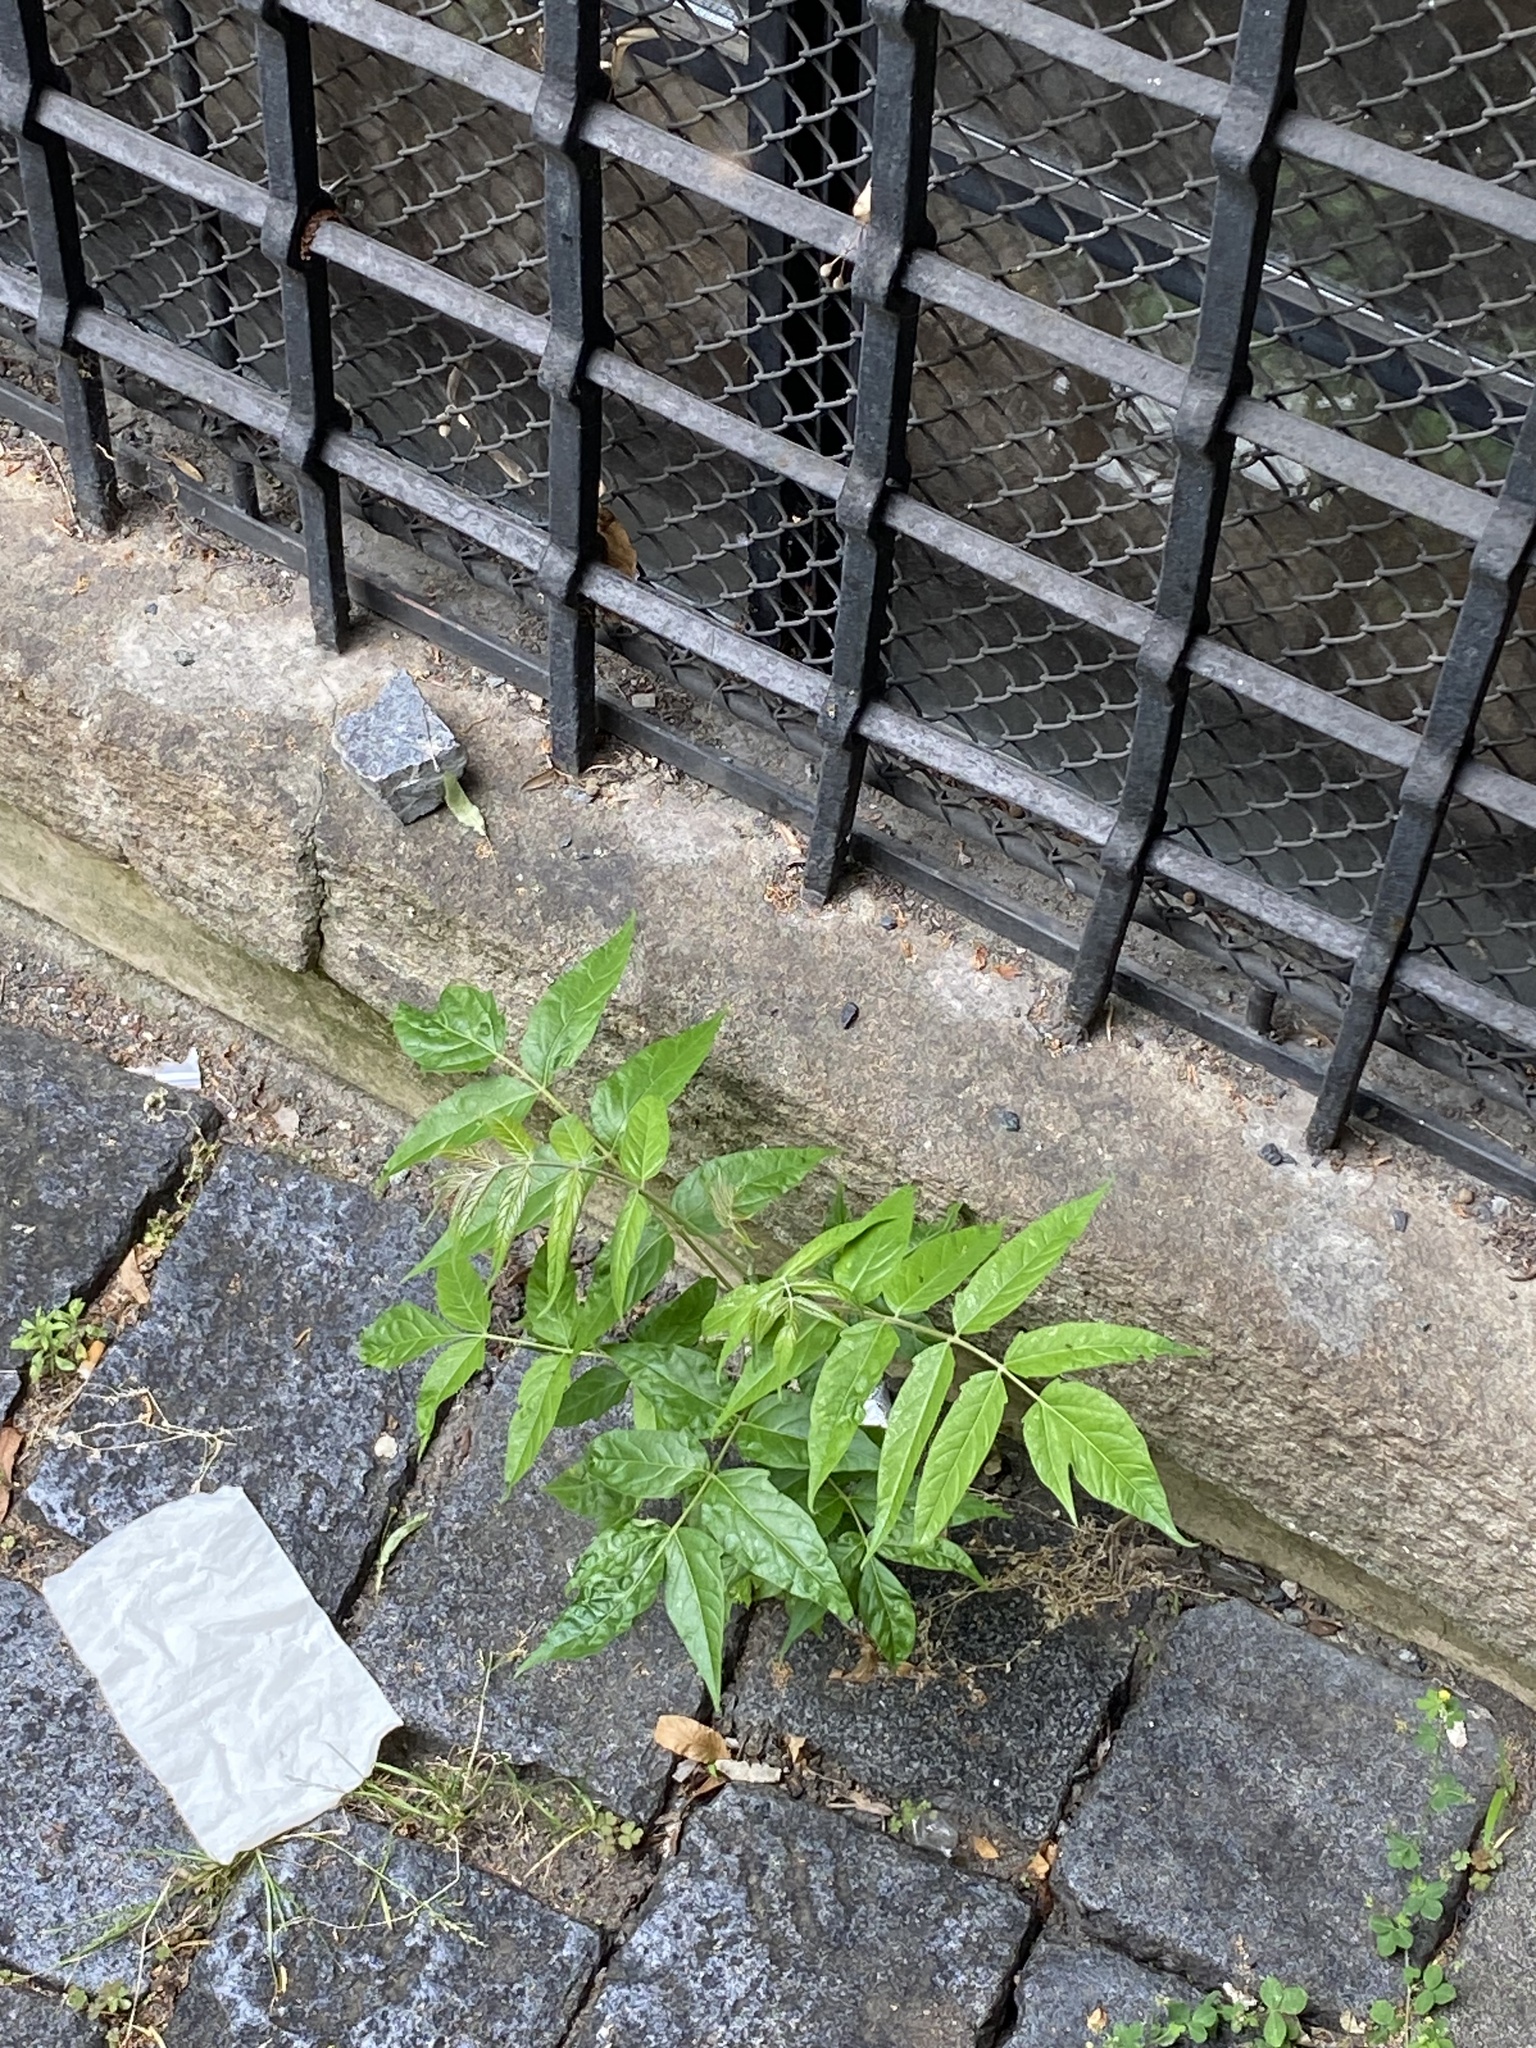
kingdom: Plantae
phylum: Tracheophyta
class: Magnoliopsida
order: Sapindales
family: Simaroubaceae
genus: Ailanthus
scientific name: Ailanthus altissima
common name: Tree-of-heaven
